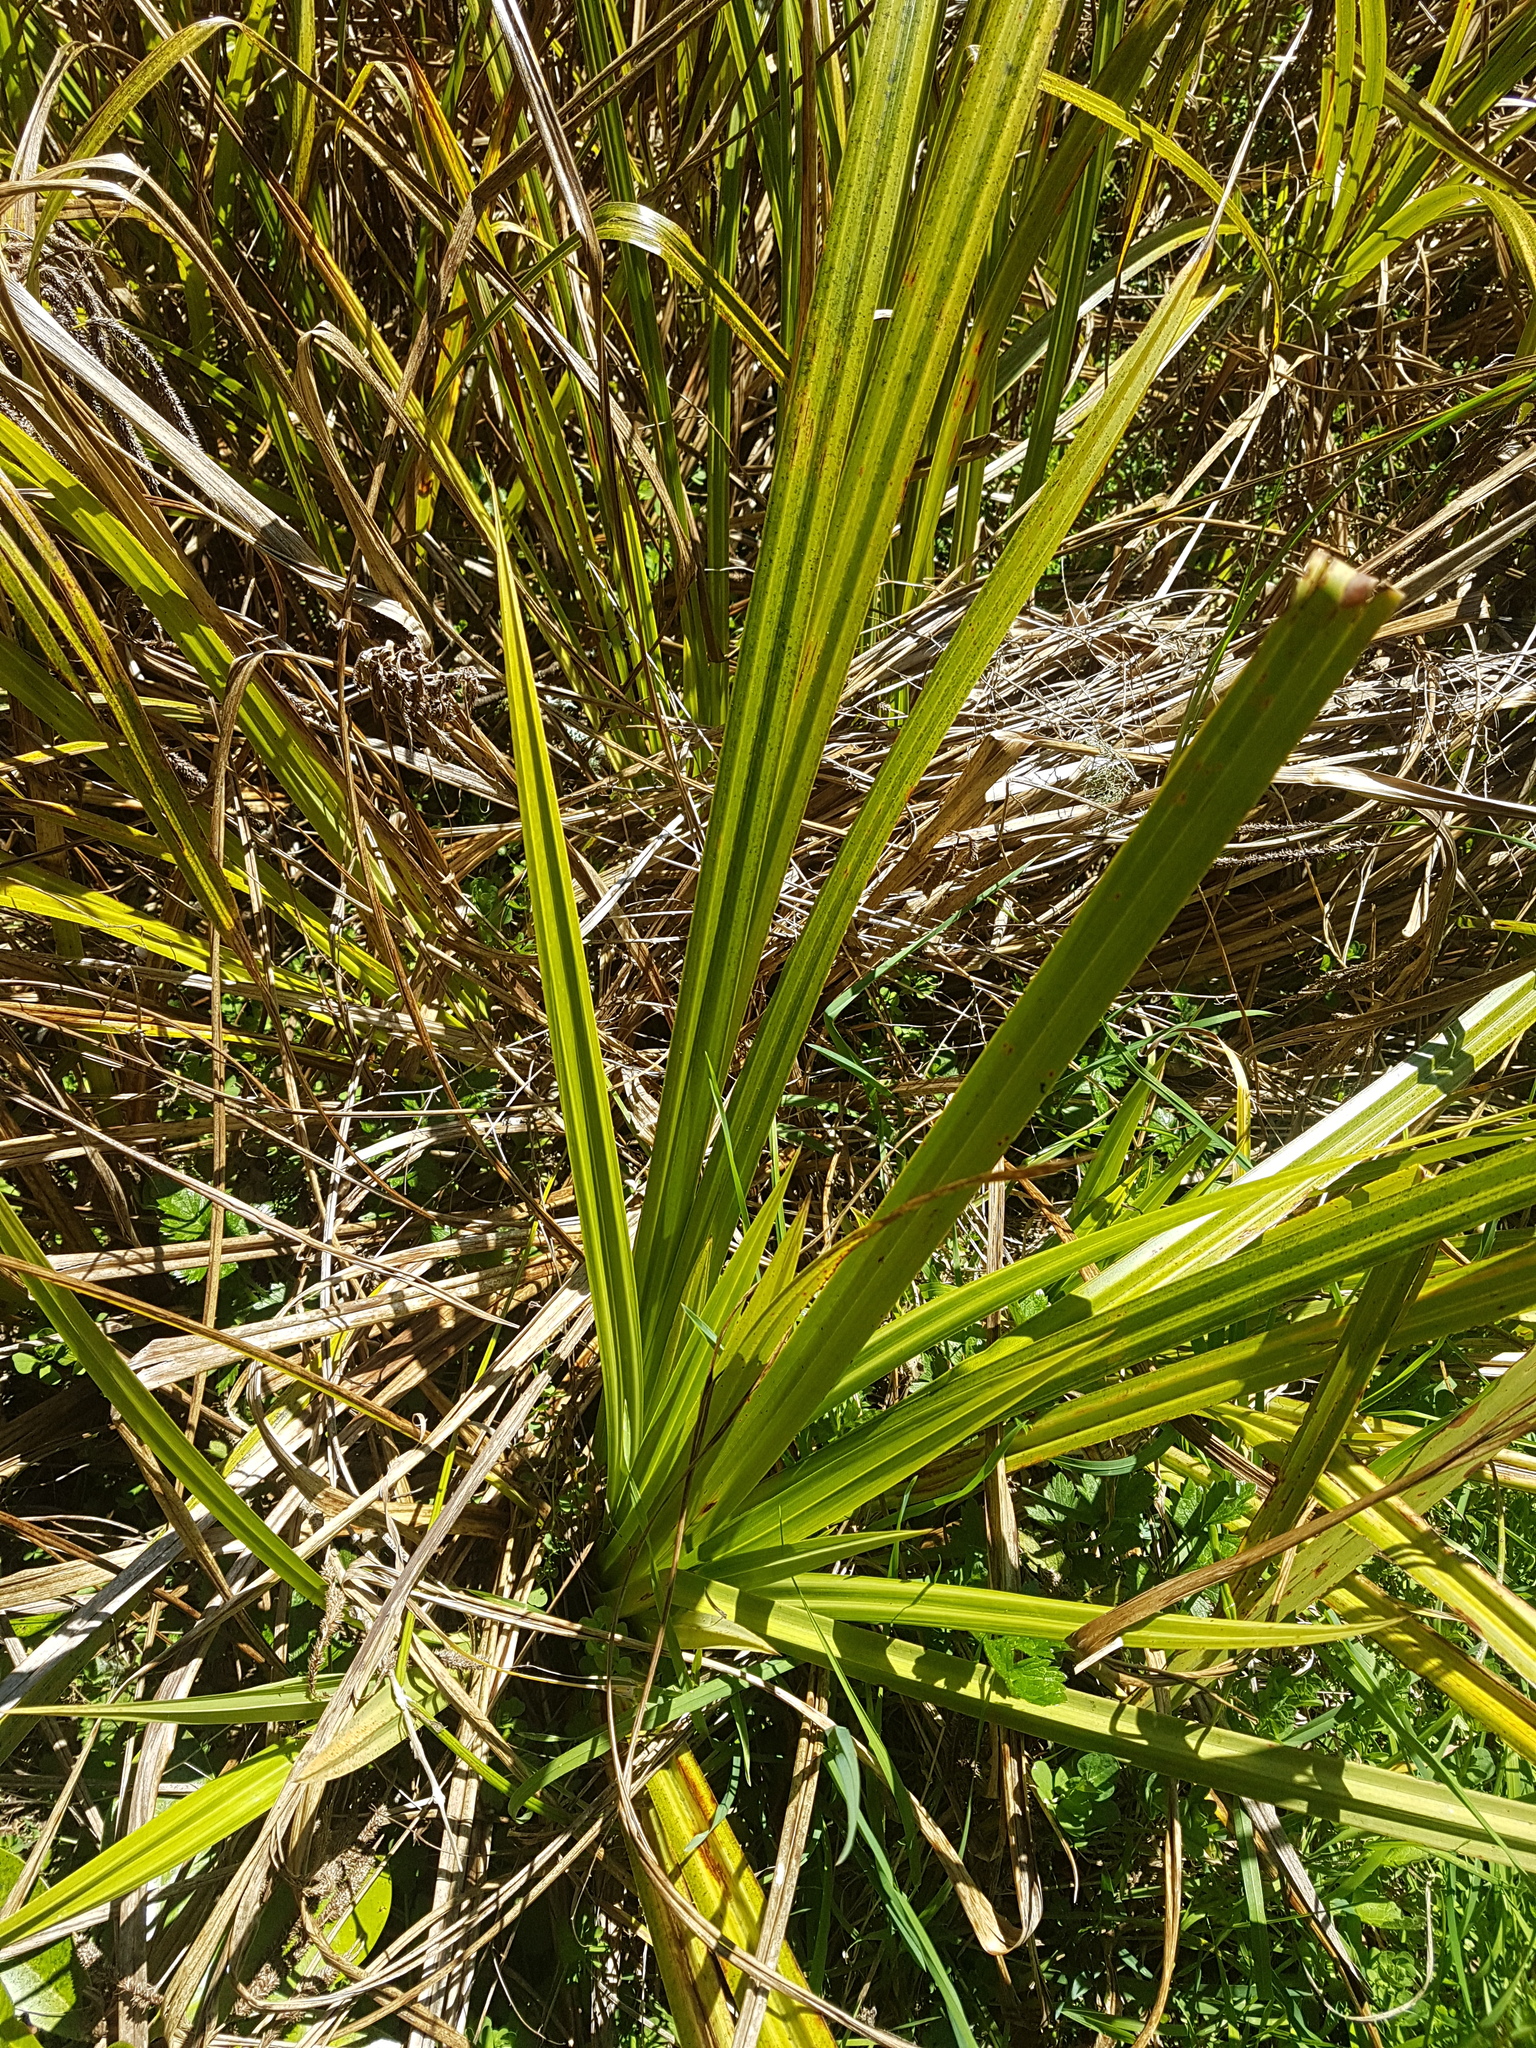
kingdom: Plantae
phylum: Tracheophyta
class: Liliopsida
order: Poales
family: Cyperaceae
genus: Carex
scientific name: Carex geminata
